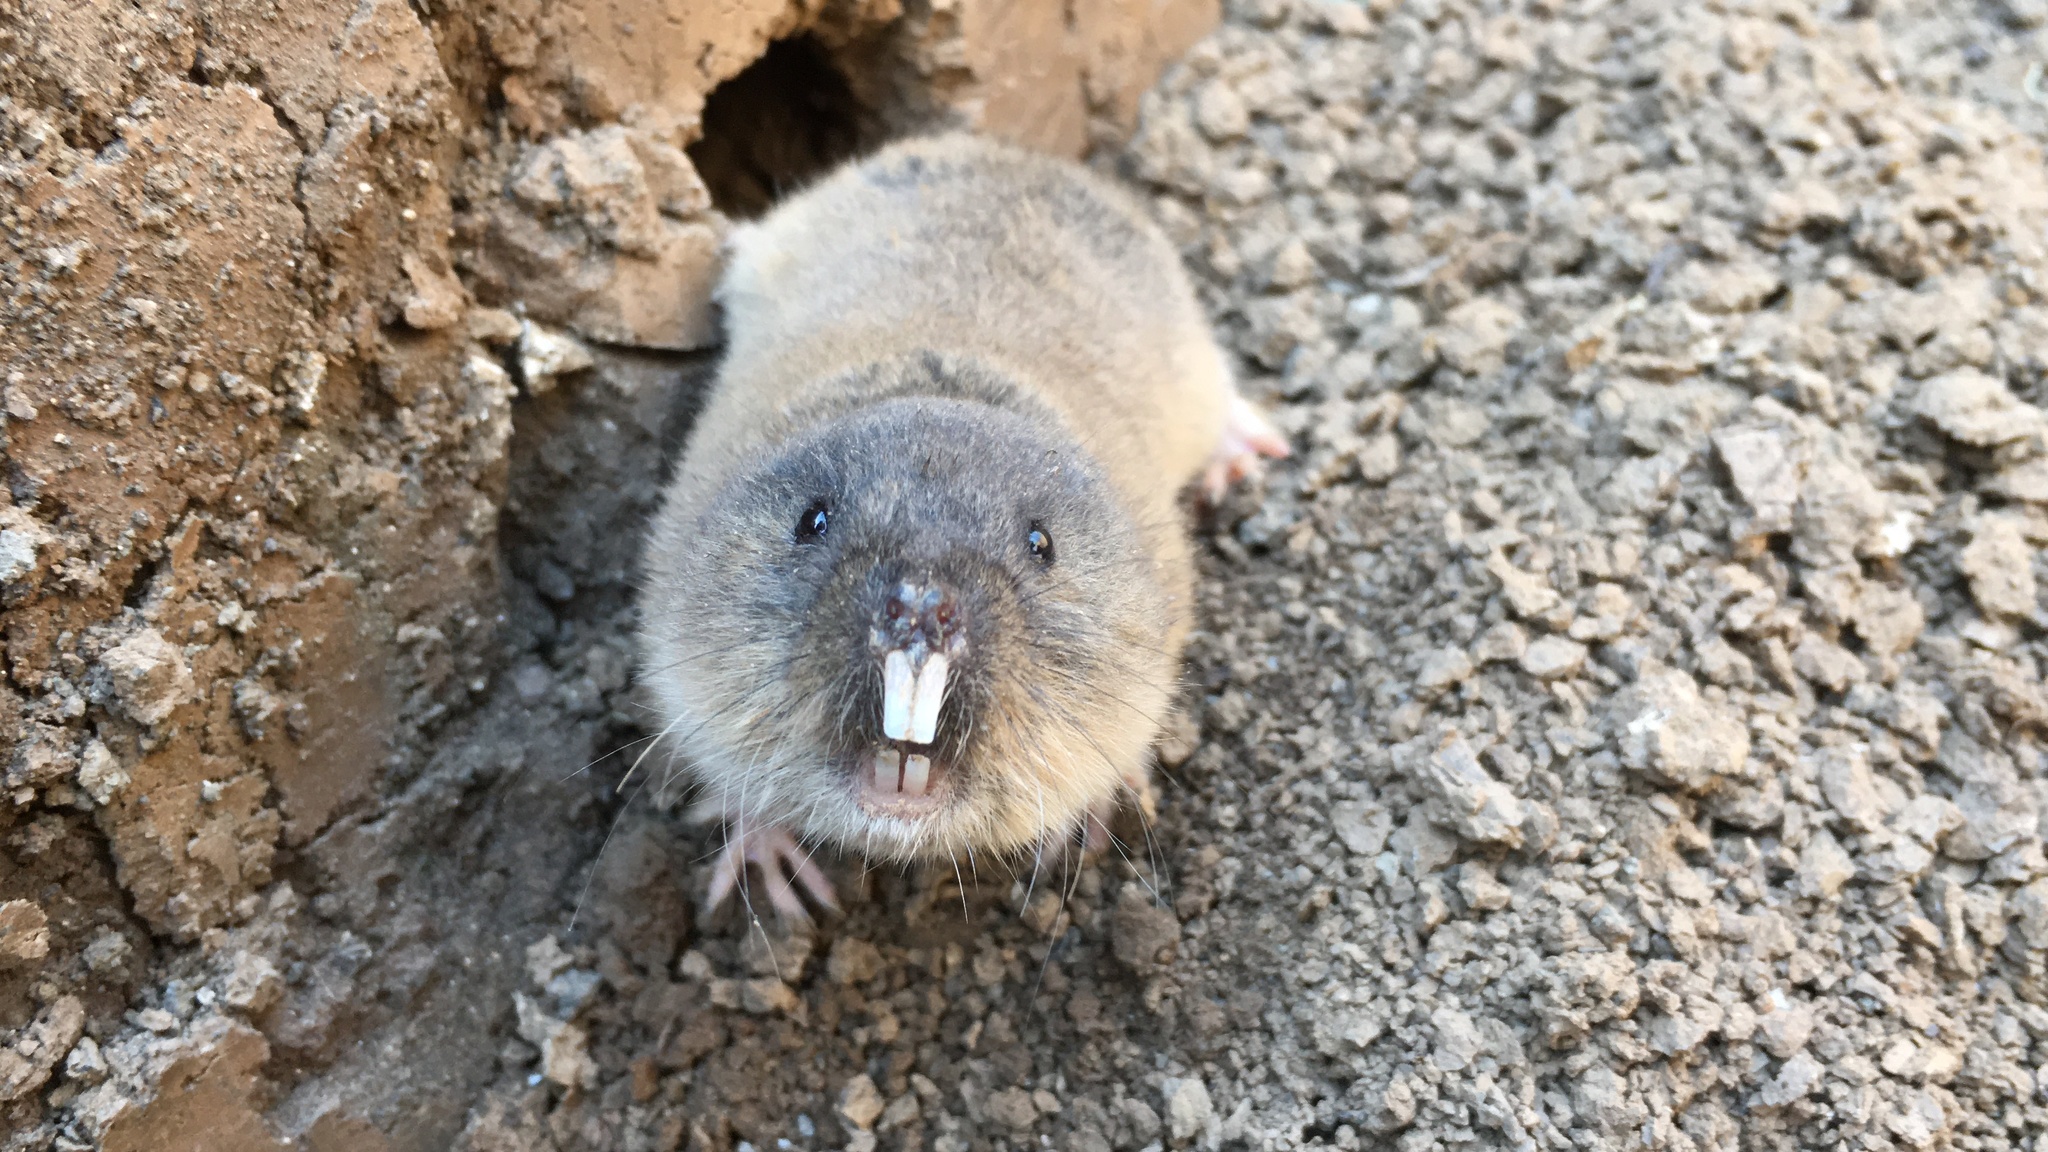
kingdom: Animalia
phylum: Chordata
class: Mammalia
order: Rodentia
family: Cricetidae
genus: Ellobius
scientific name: Ellobius talpinus
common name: Northern mole vole
